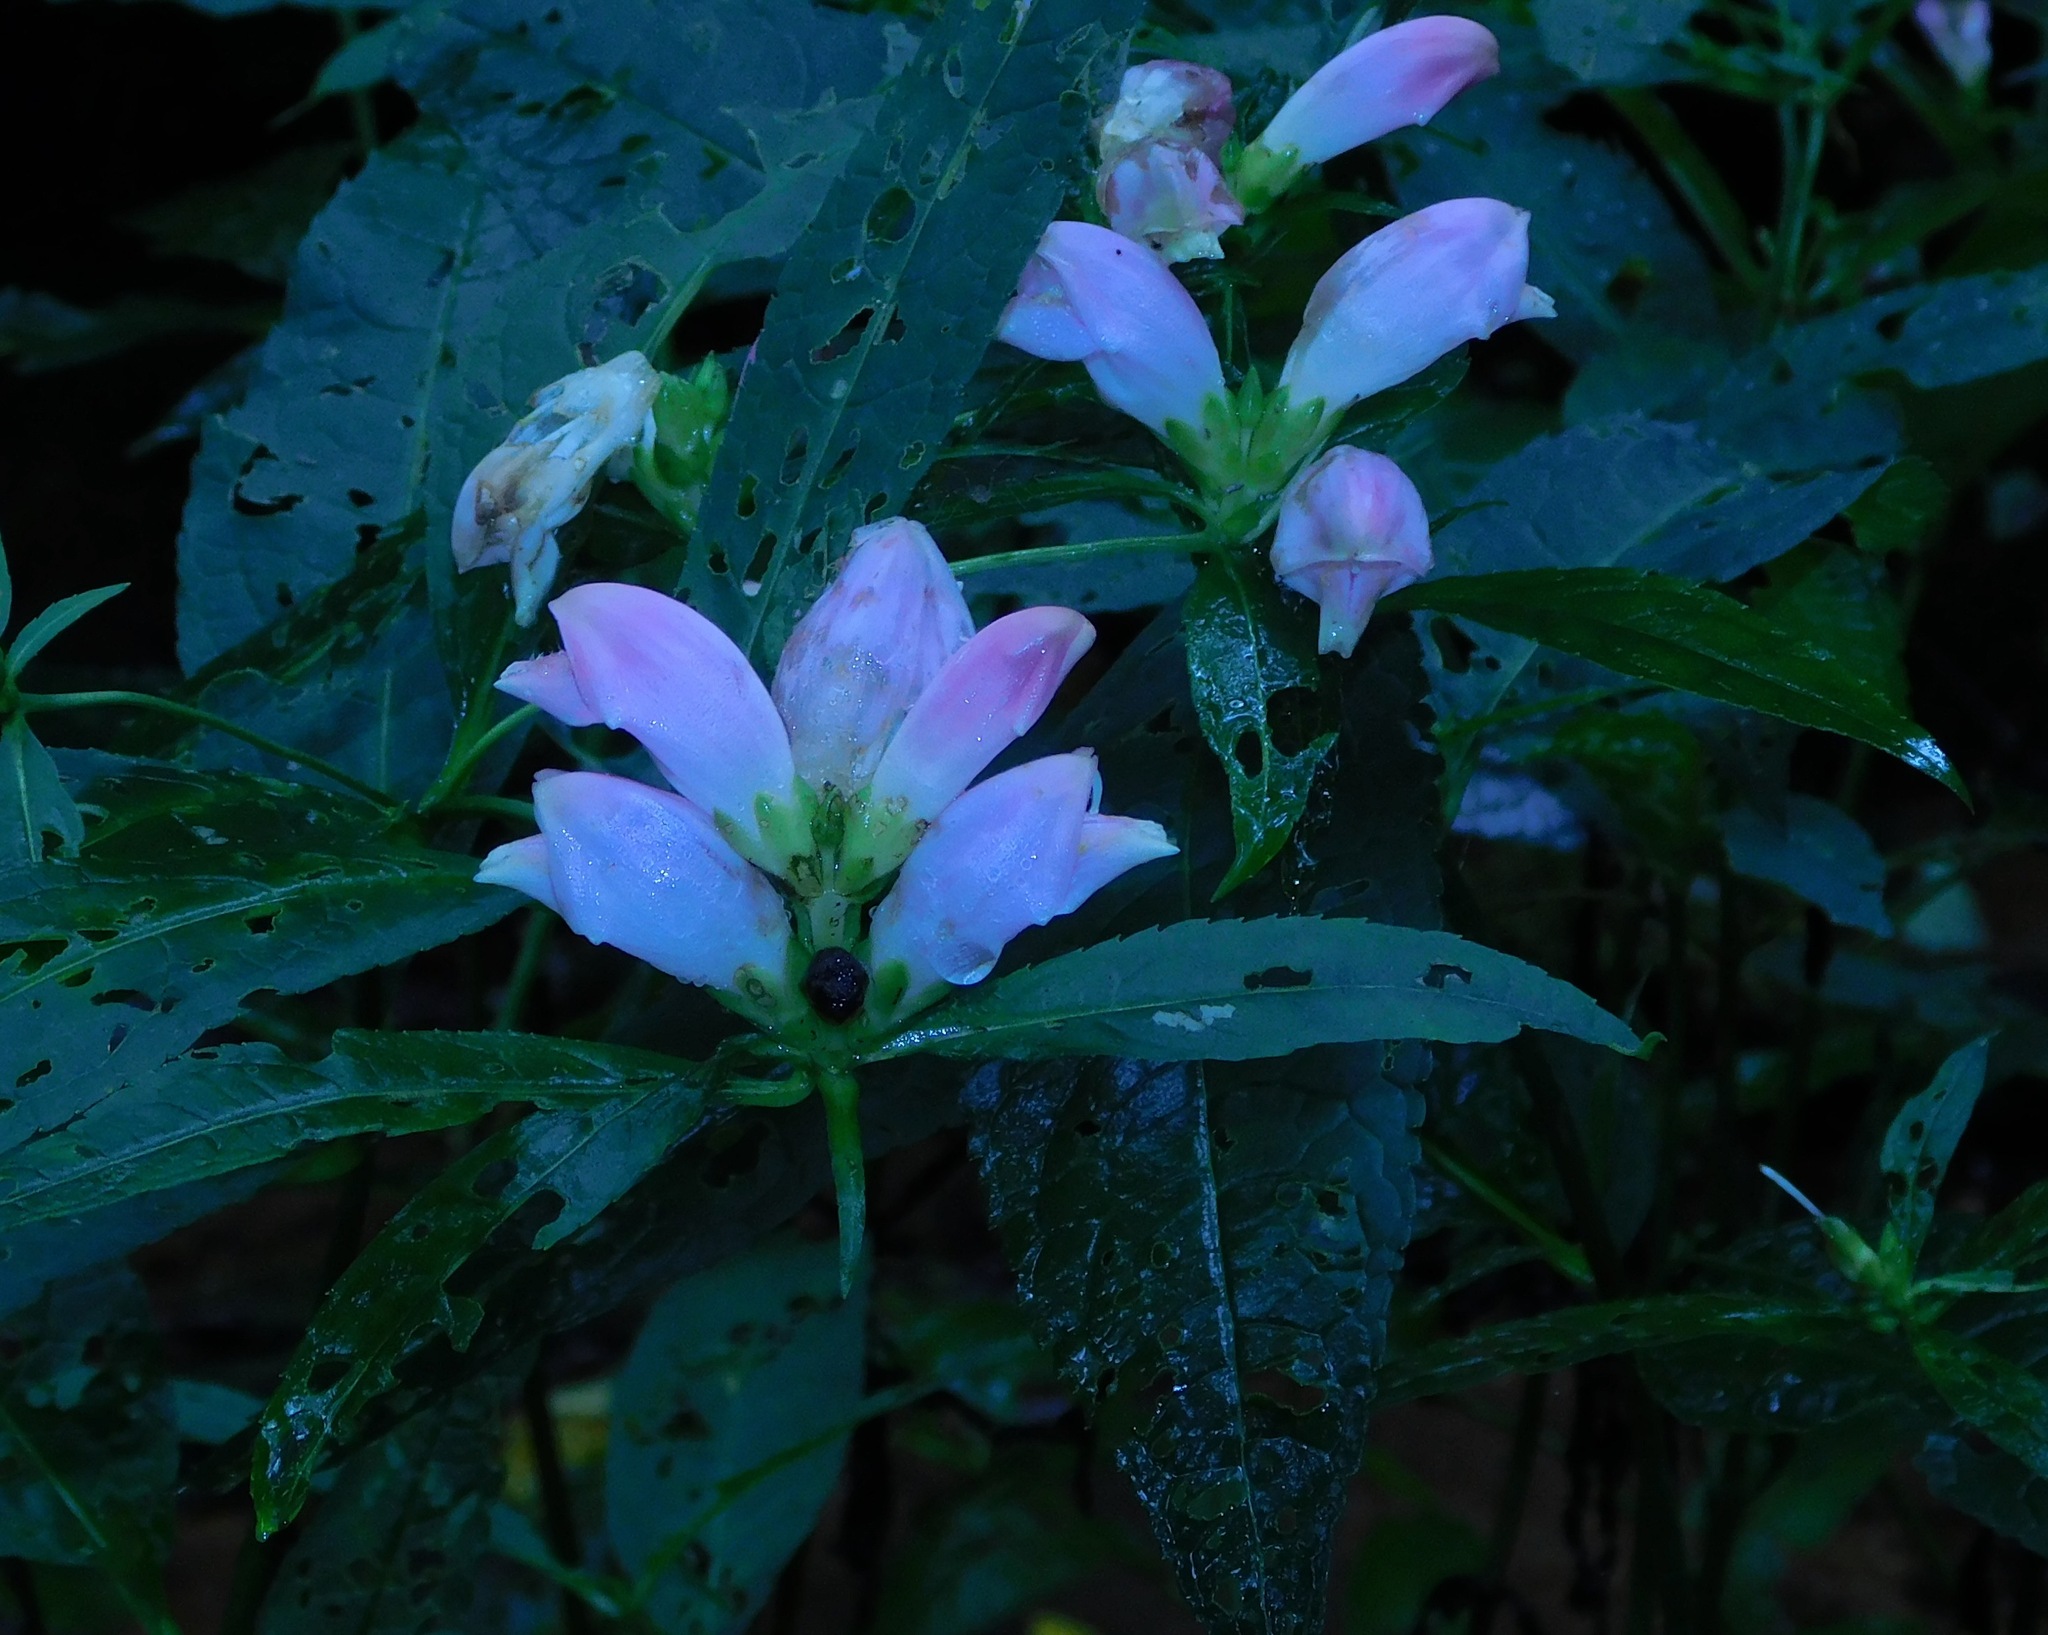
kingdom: Plantae
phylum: Tracheophyta
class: Magnoliopsida
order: Lamiales
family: Plantaginaceae
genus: Chelone
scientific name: Chelone lyonii
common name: Pink turtlehead
